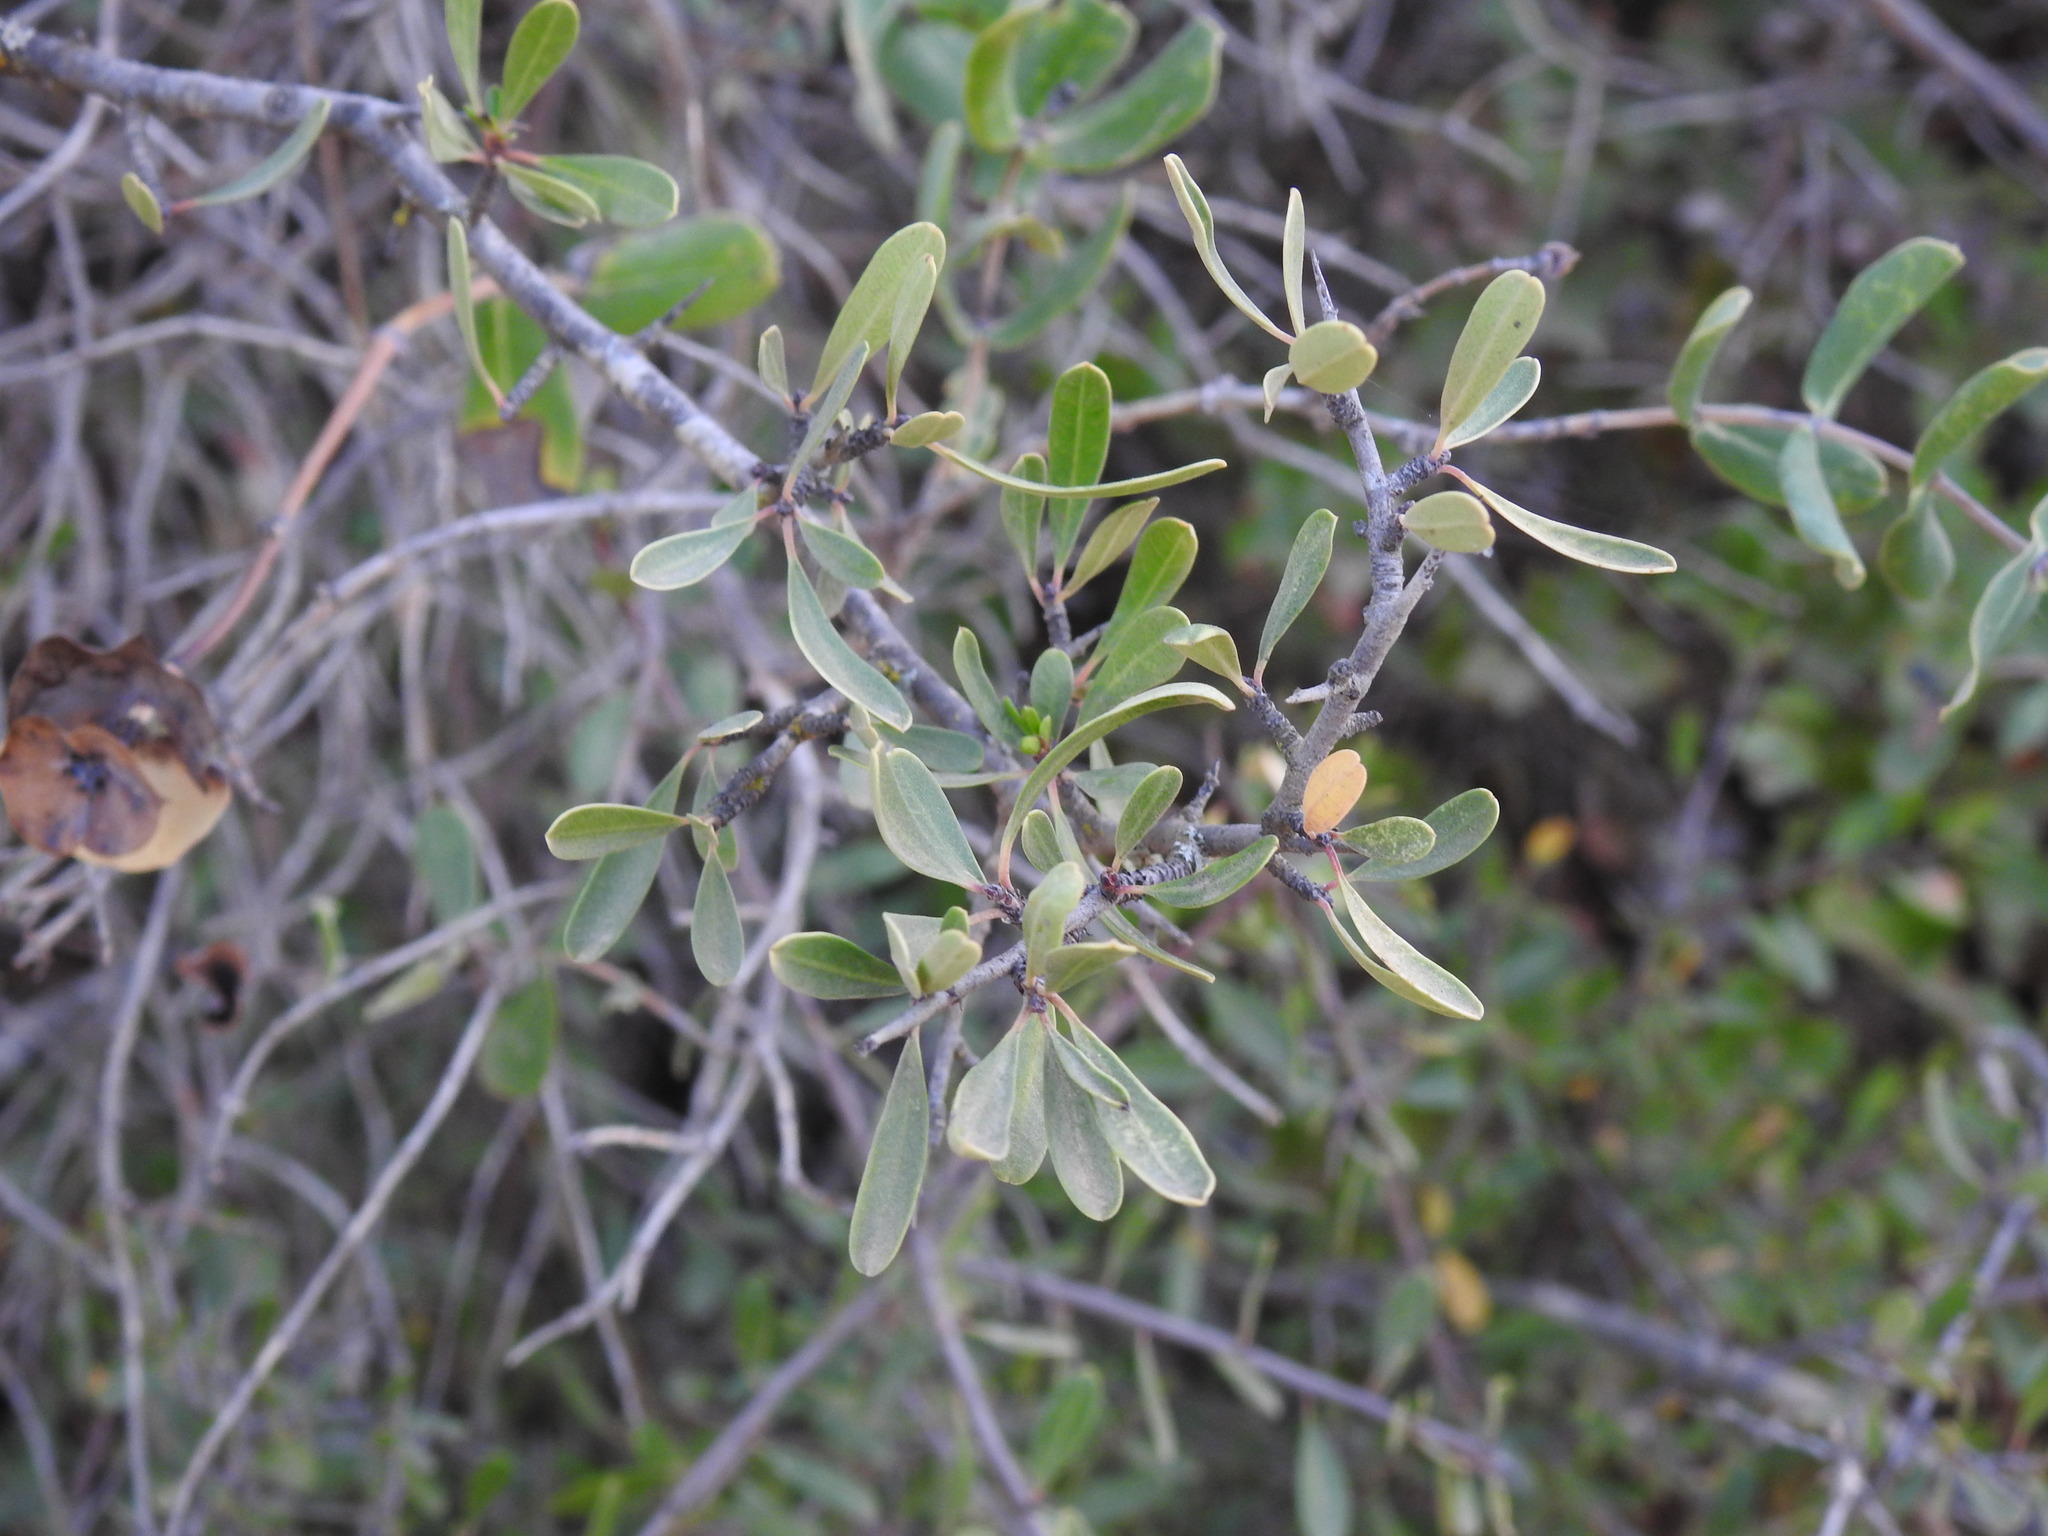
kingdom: Plantae
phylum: Tracheophyta
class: Magnoliopsida
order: Rosales
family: Rhamnaceae
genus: Rhamnus
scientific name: Rhamnus oleoides
